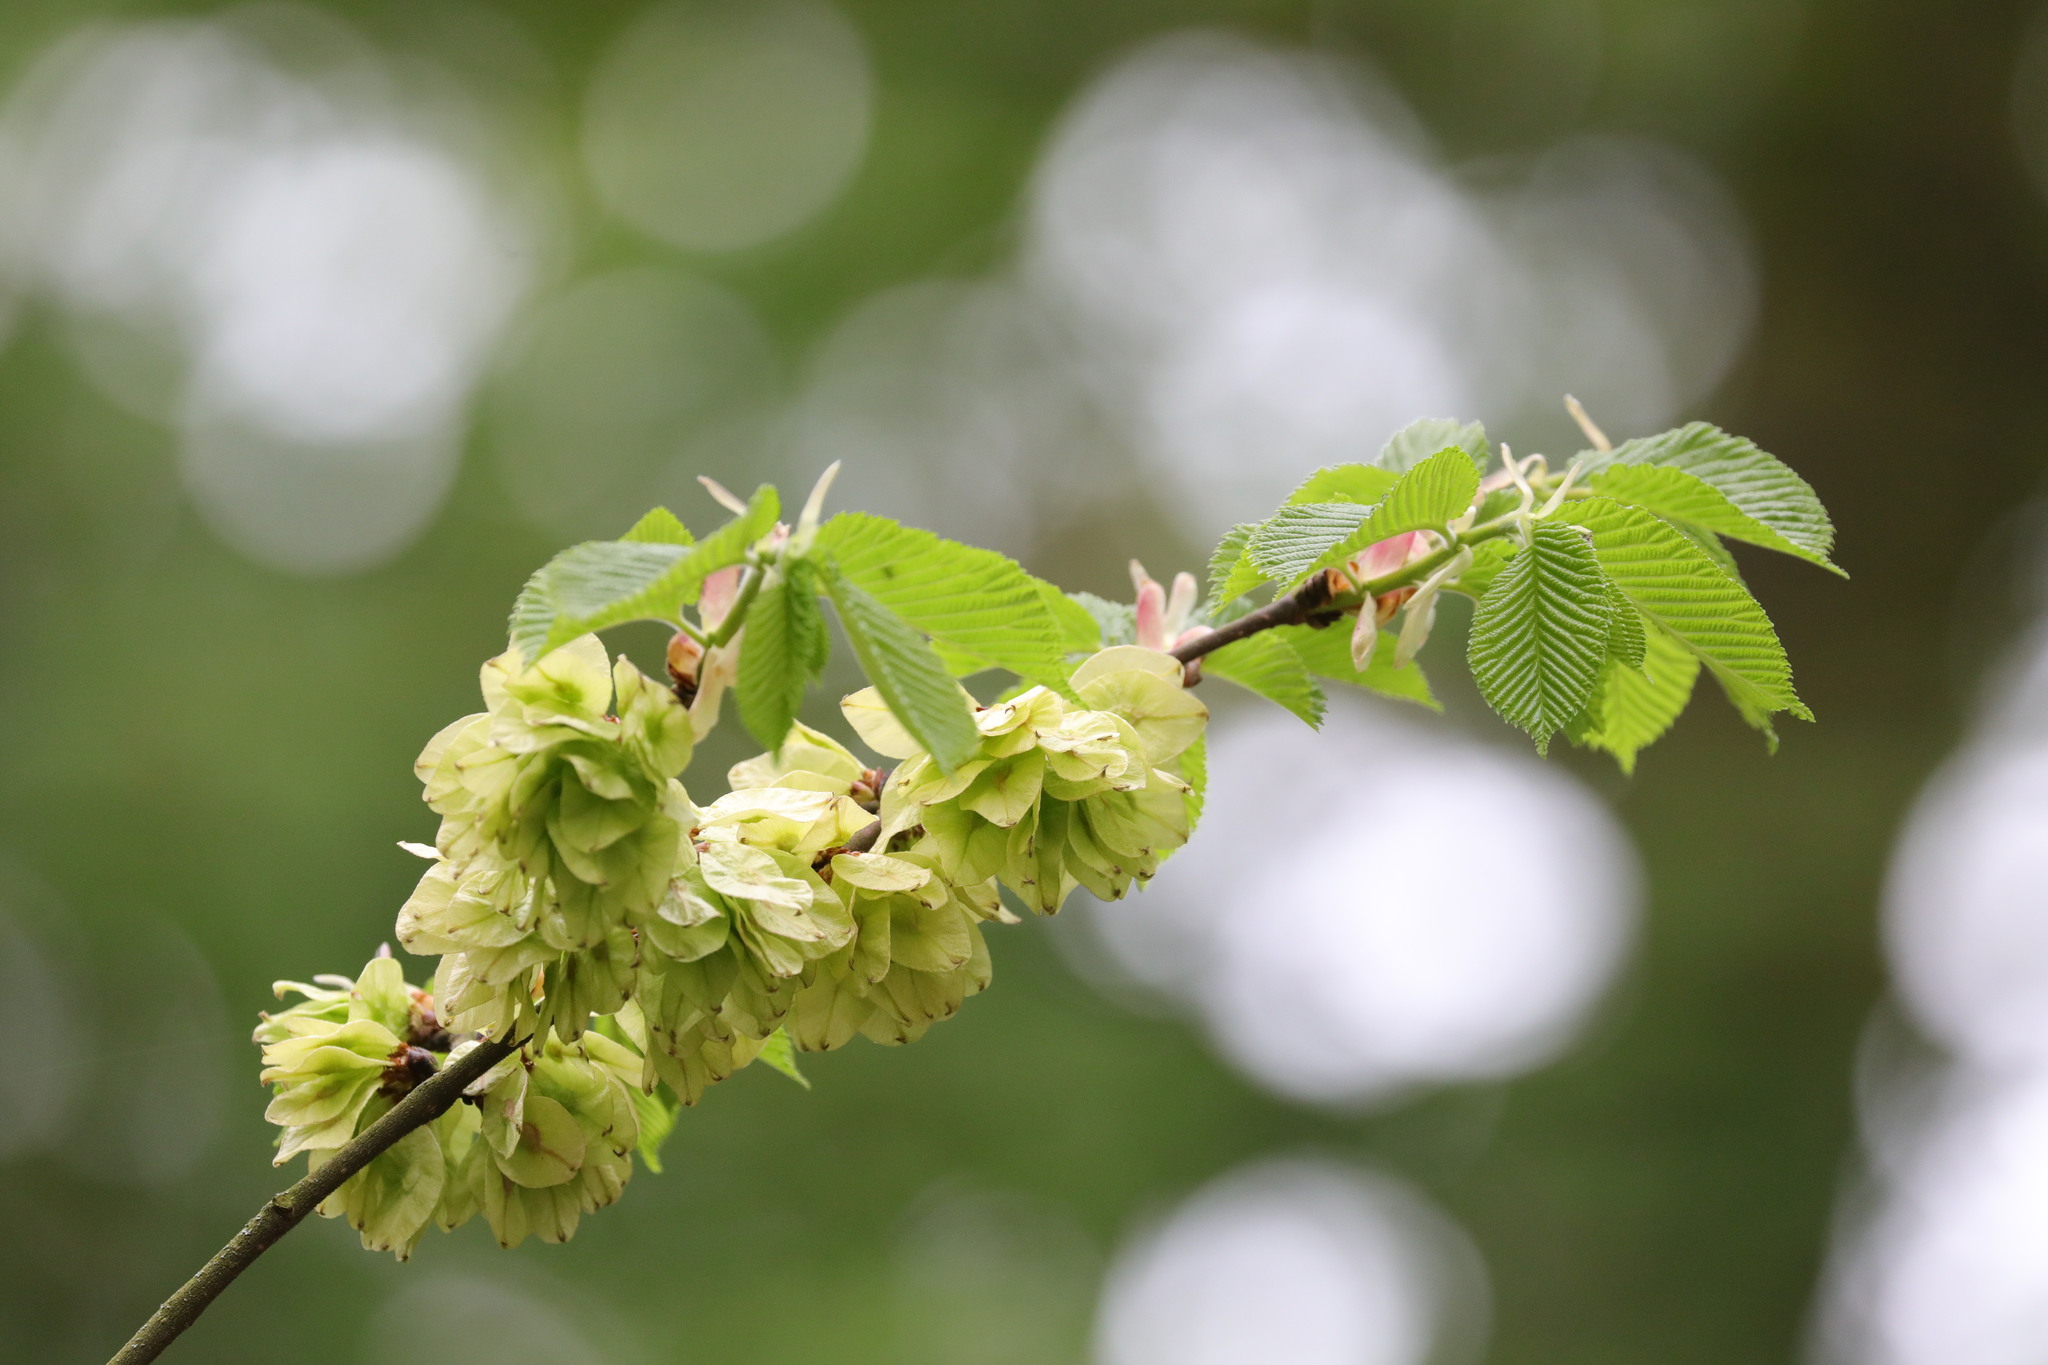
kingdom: Plantae
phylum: Tracheophyta
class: Magnoliopsida
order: Rosales
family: Ulmaceae
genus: Ulmus
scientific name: Ulmus glabra
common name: Wych elm
